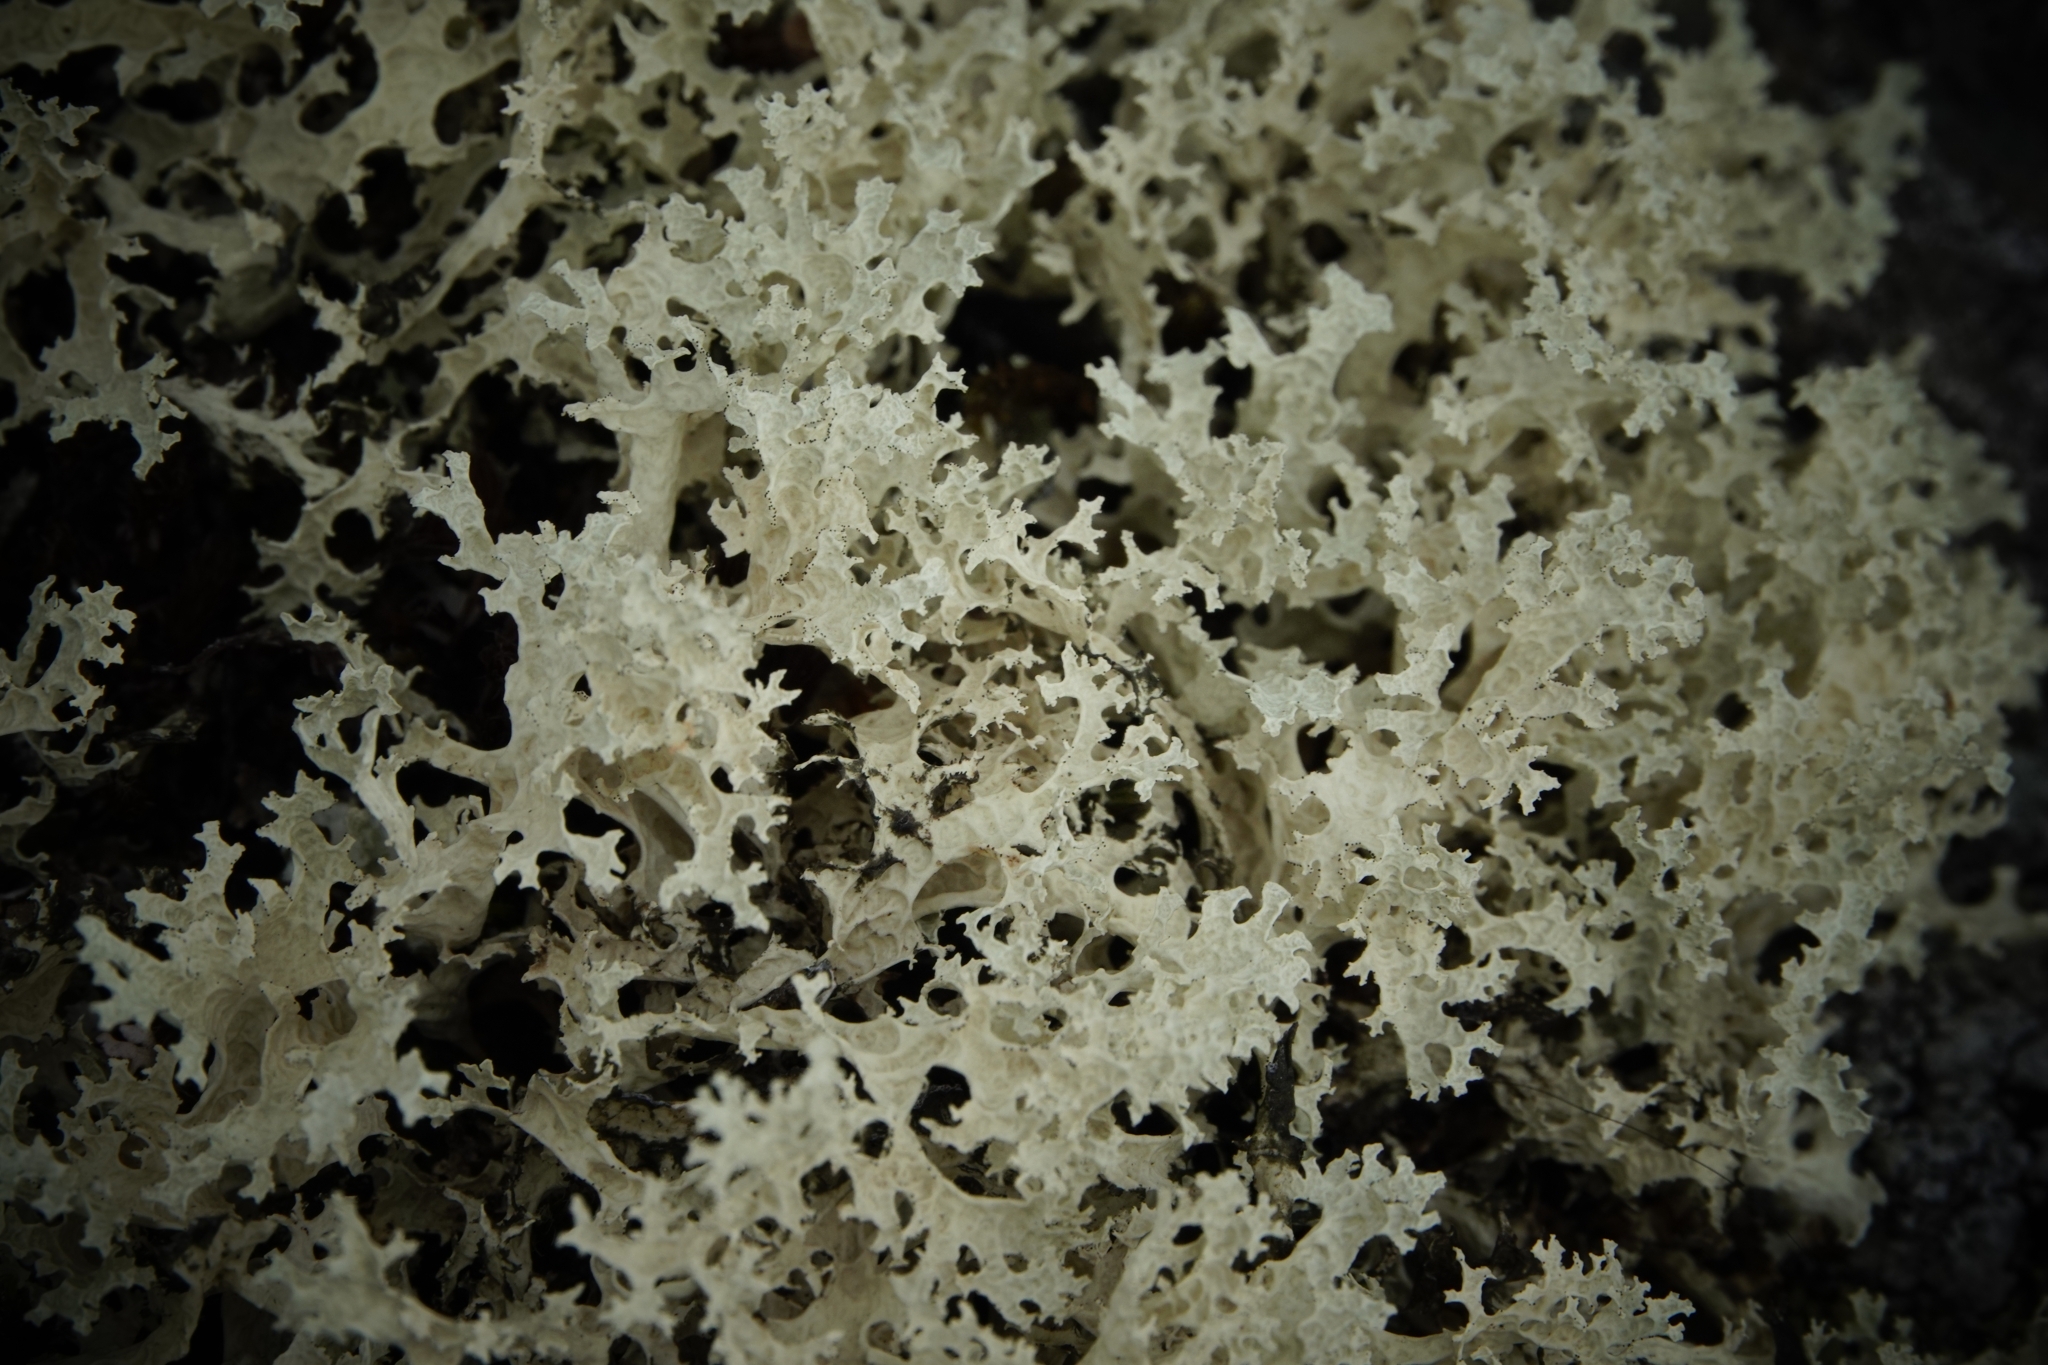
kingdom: Fungi
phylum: Ascomycota
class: Lecanoromycetes
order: Lecanorales
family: Parmeliaceae
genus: Nephromopsis
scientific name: Nephromopsis nivalis
